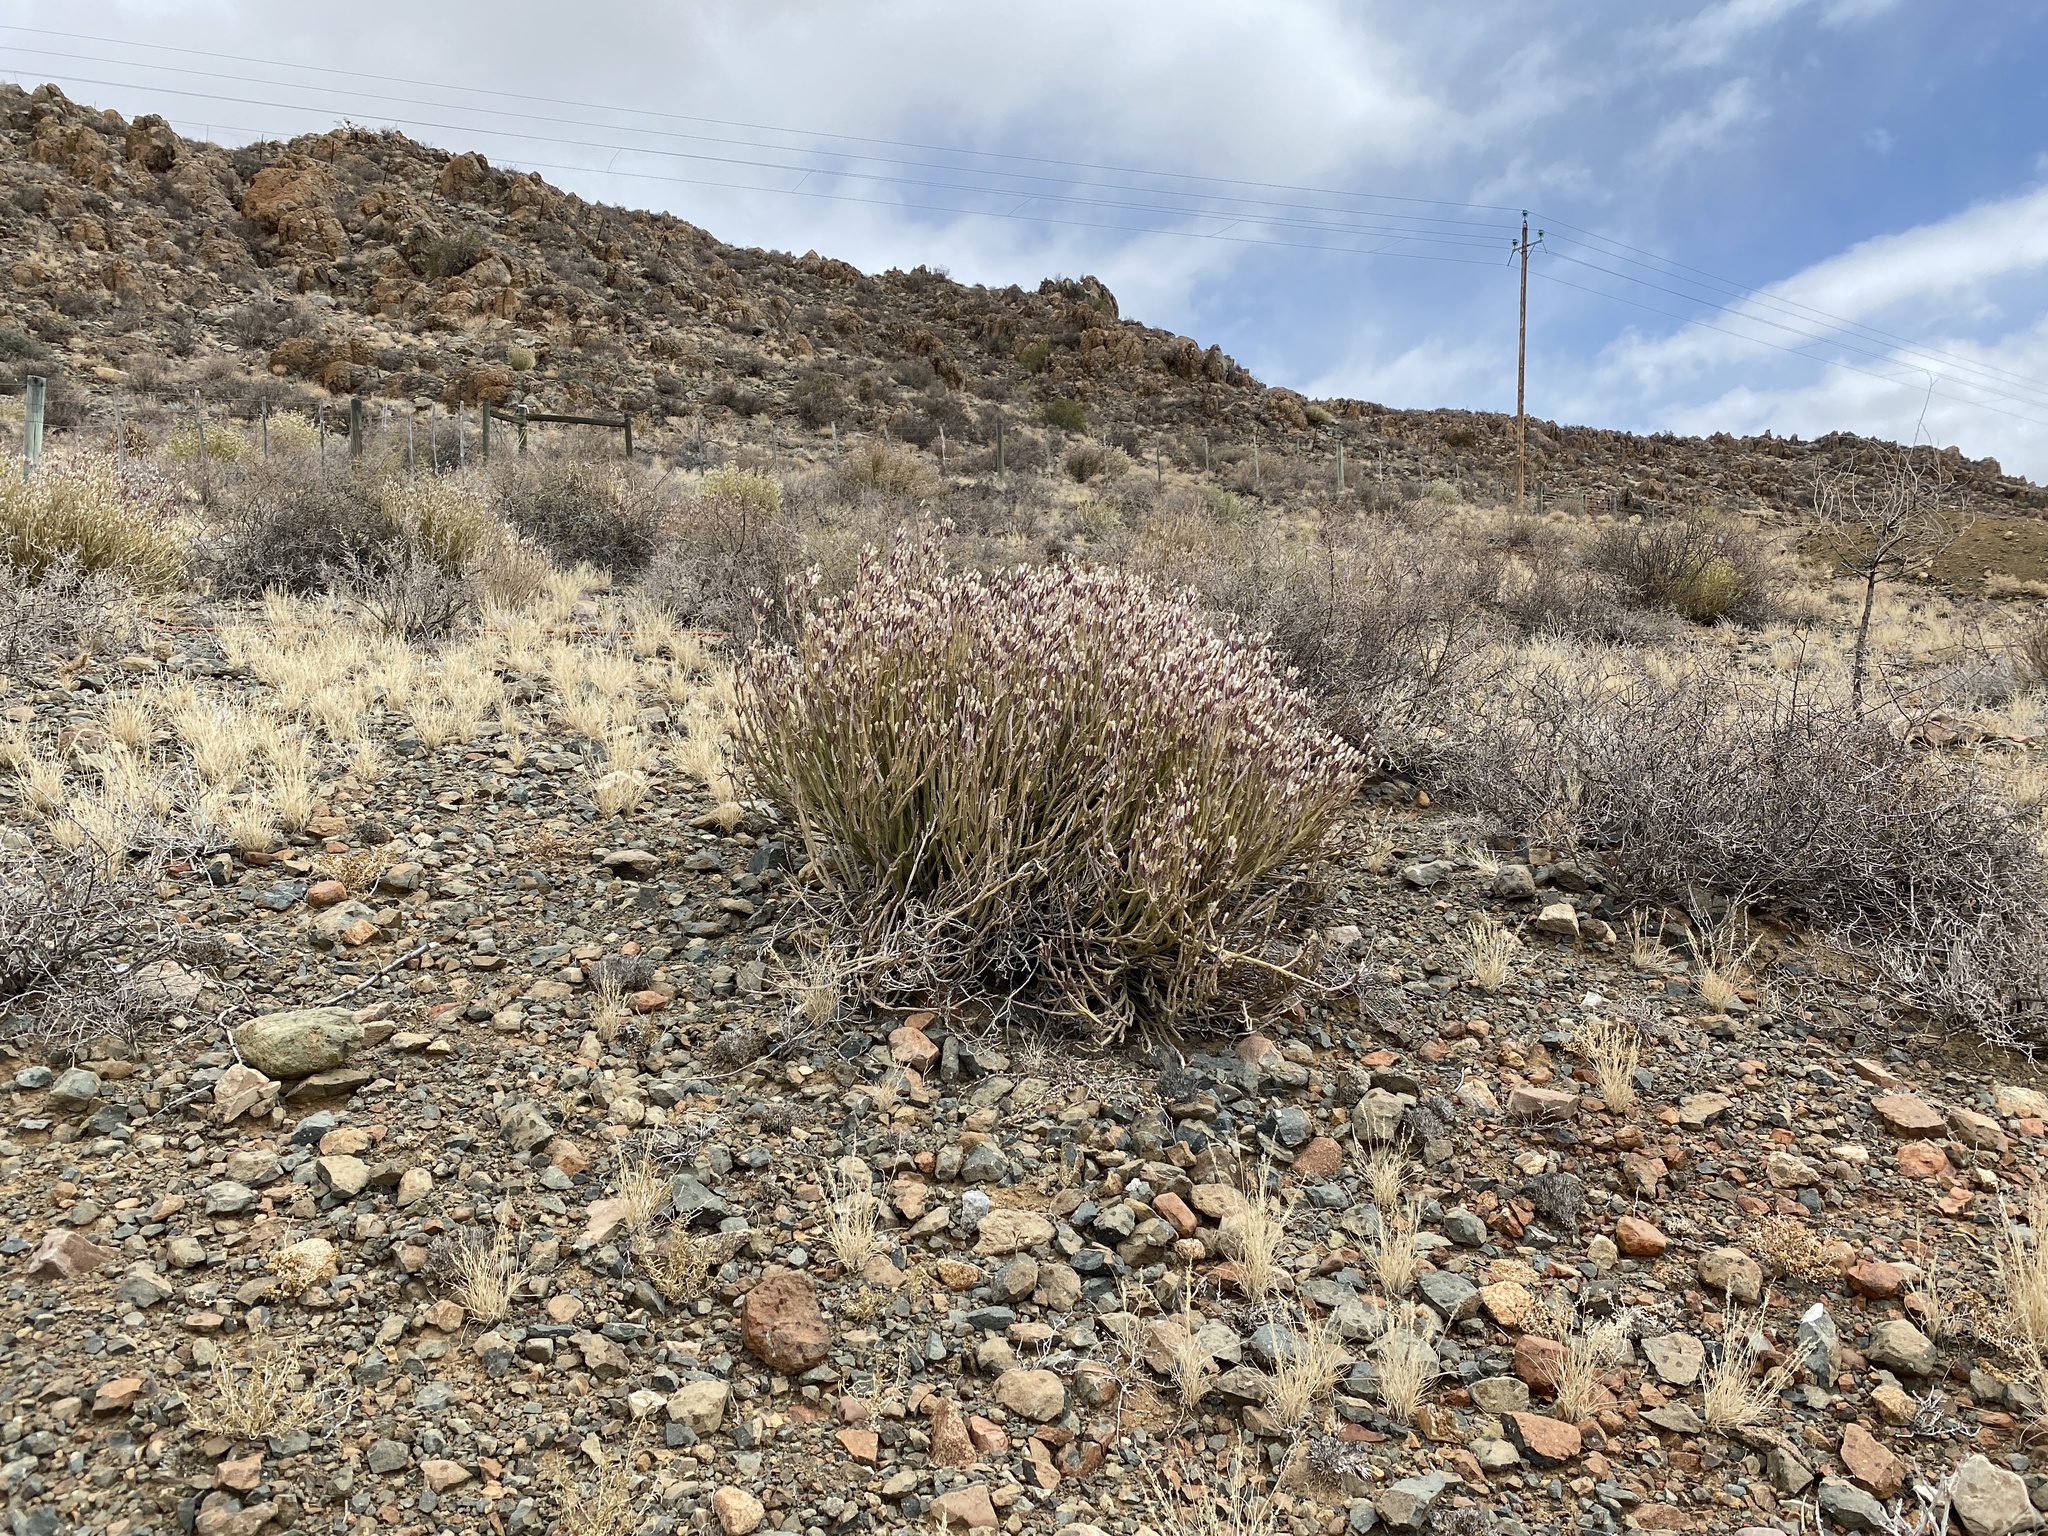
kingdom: Plantae
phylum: Tracheophyta
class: Magnoliopsida
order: Asterales
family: Asteraceae
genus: Curio
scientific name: Curio avasimontanus
